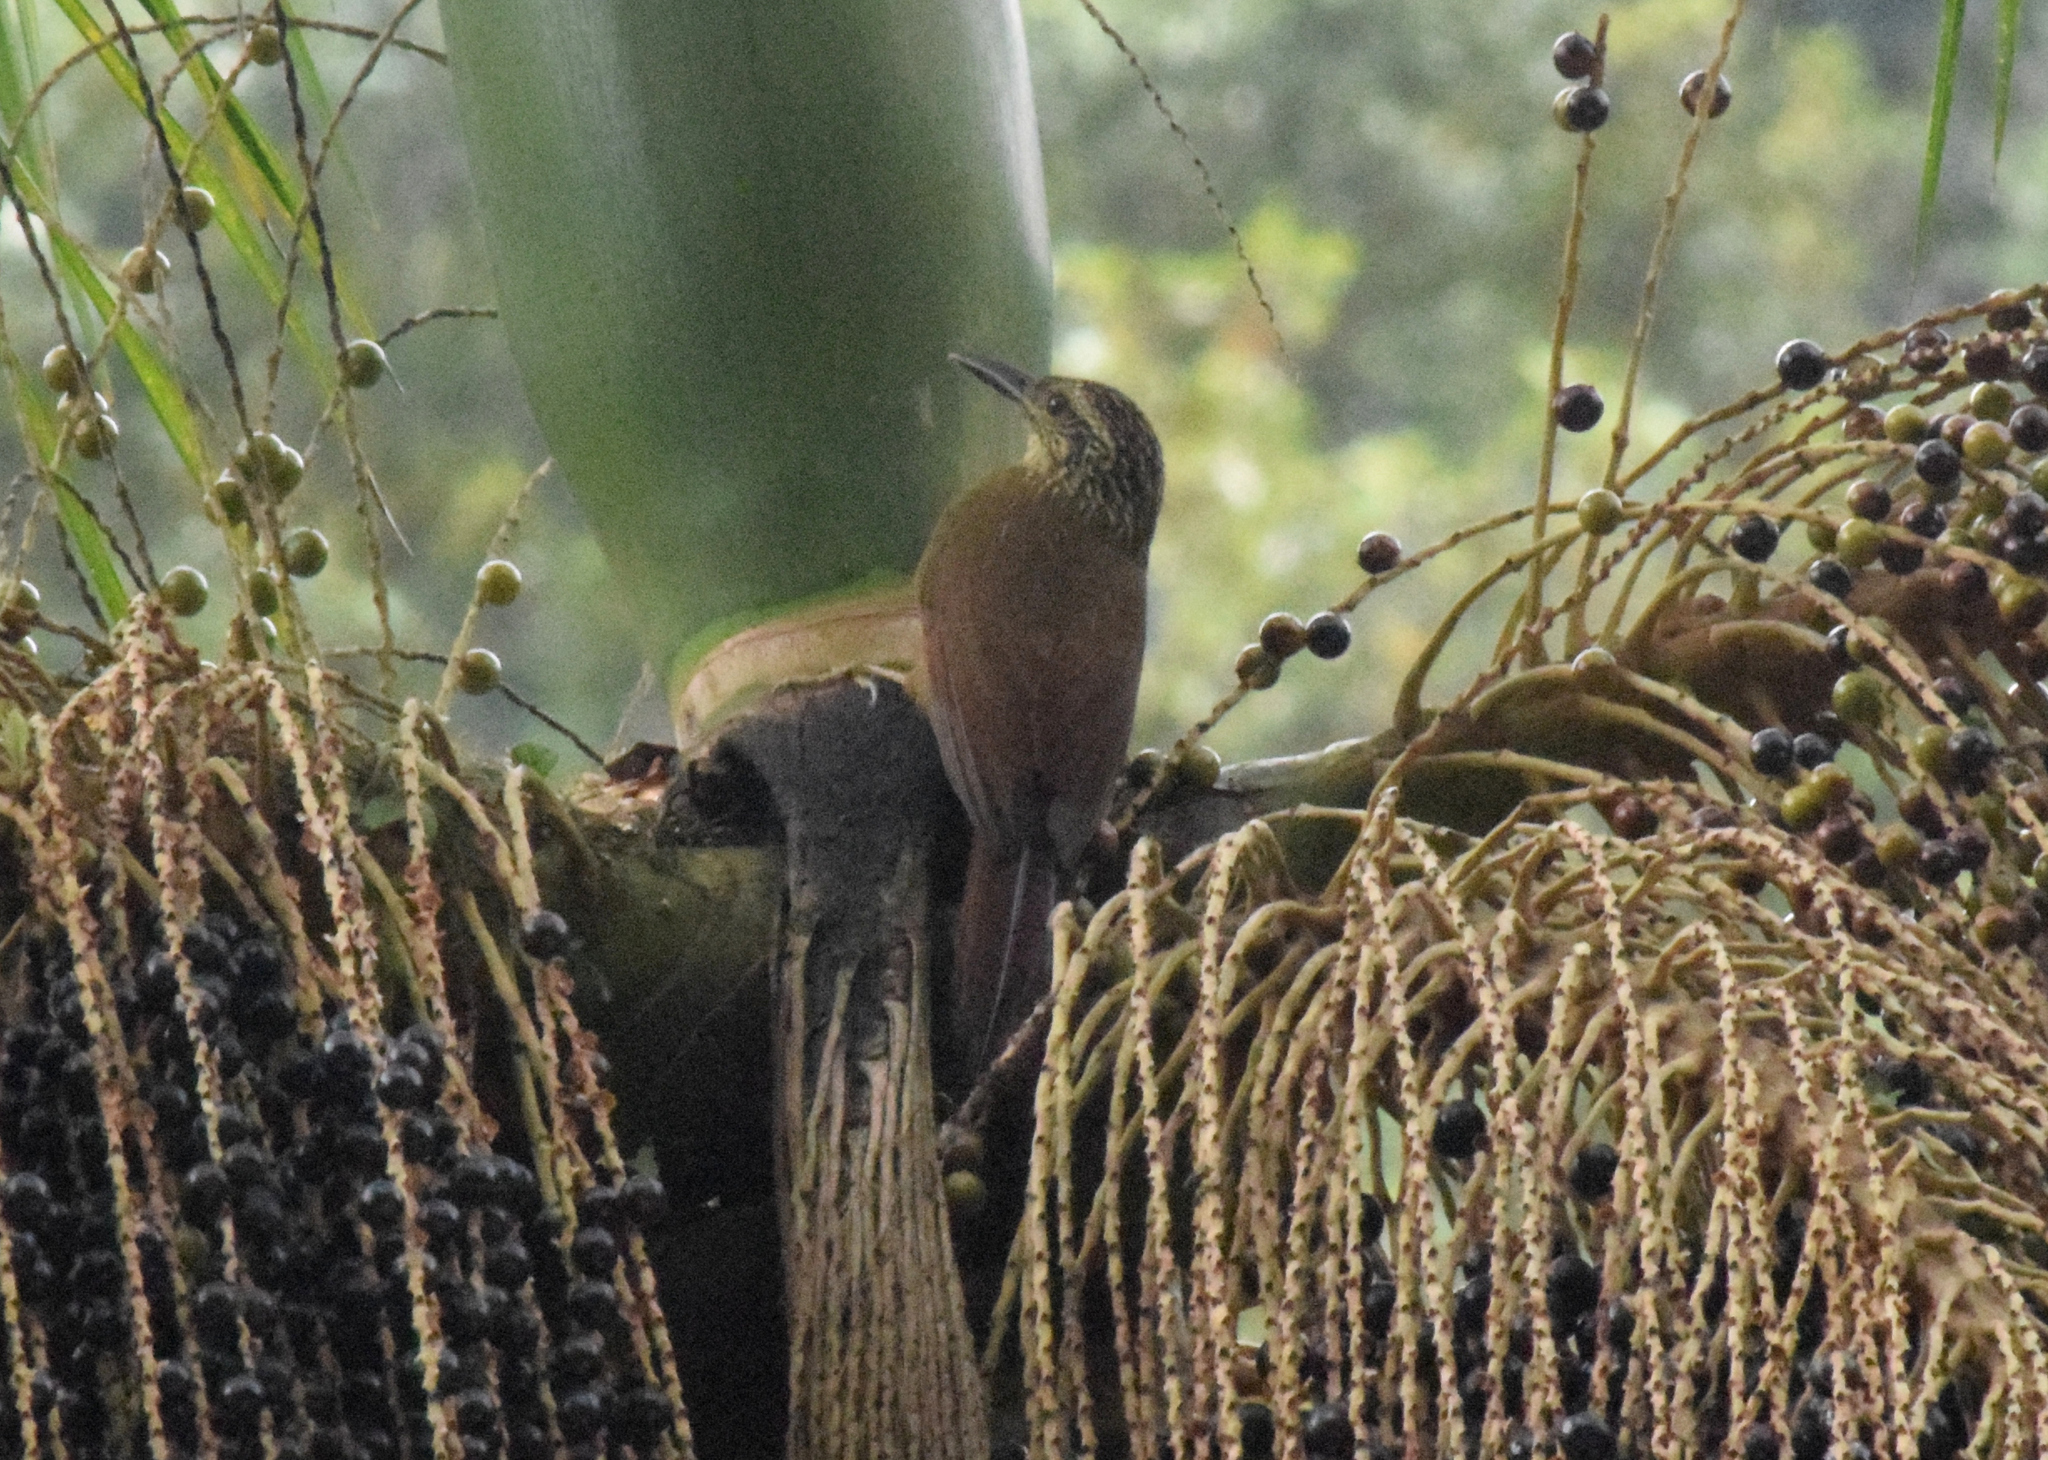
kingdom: Animalia
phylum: Chordata
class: Aves
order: Passeriformes
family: Furnariidae
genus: Dendrocolaptes
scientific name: Dendrocolaptes platyrostris
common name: Planalto woodcreeper
